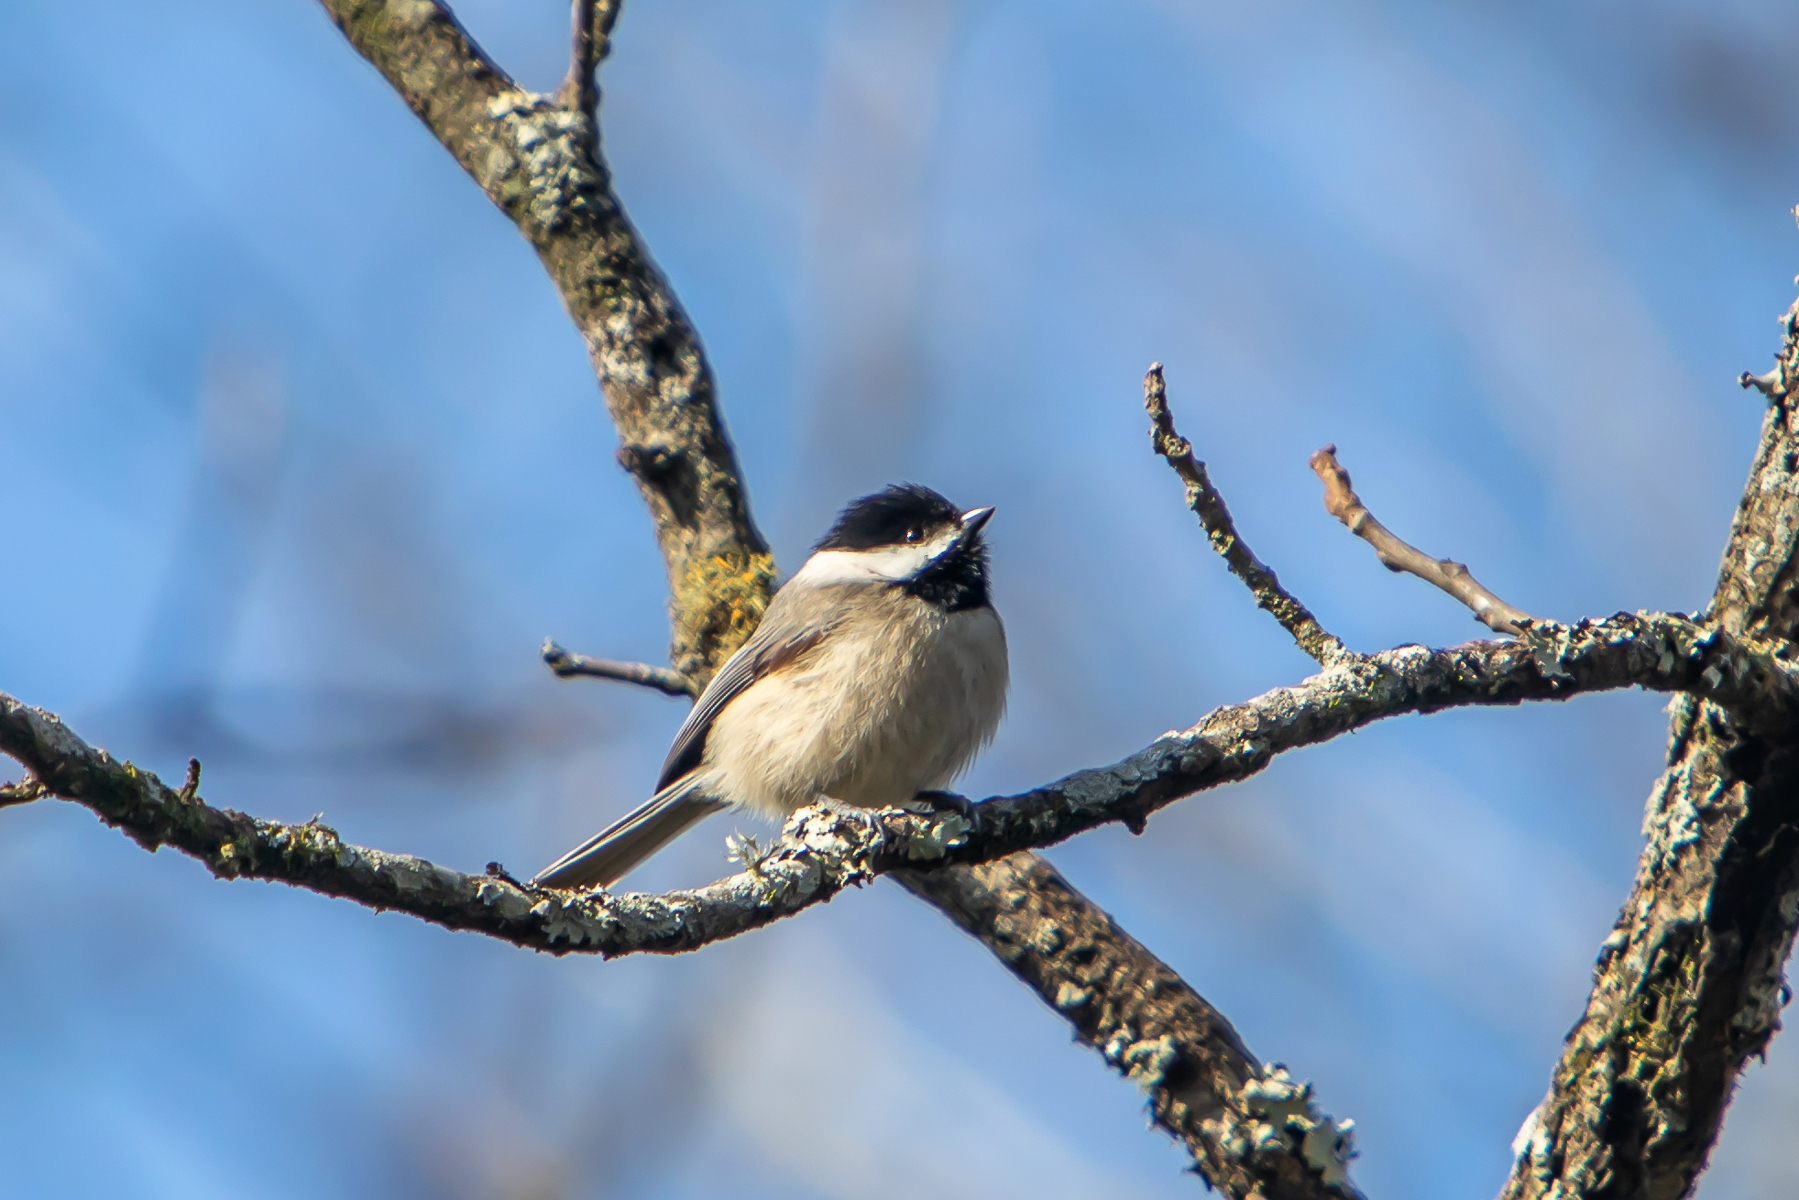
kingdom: Animalia
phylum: Chordata
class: Aves
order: Passeriformes
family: Paridae
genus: Poecile
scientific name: Poecile carolinensis
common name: Carolina chickadee
